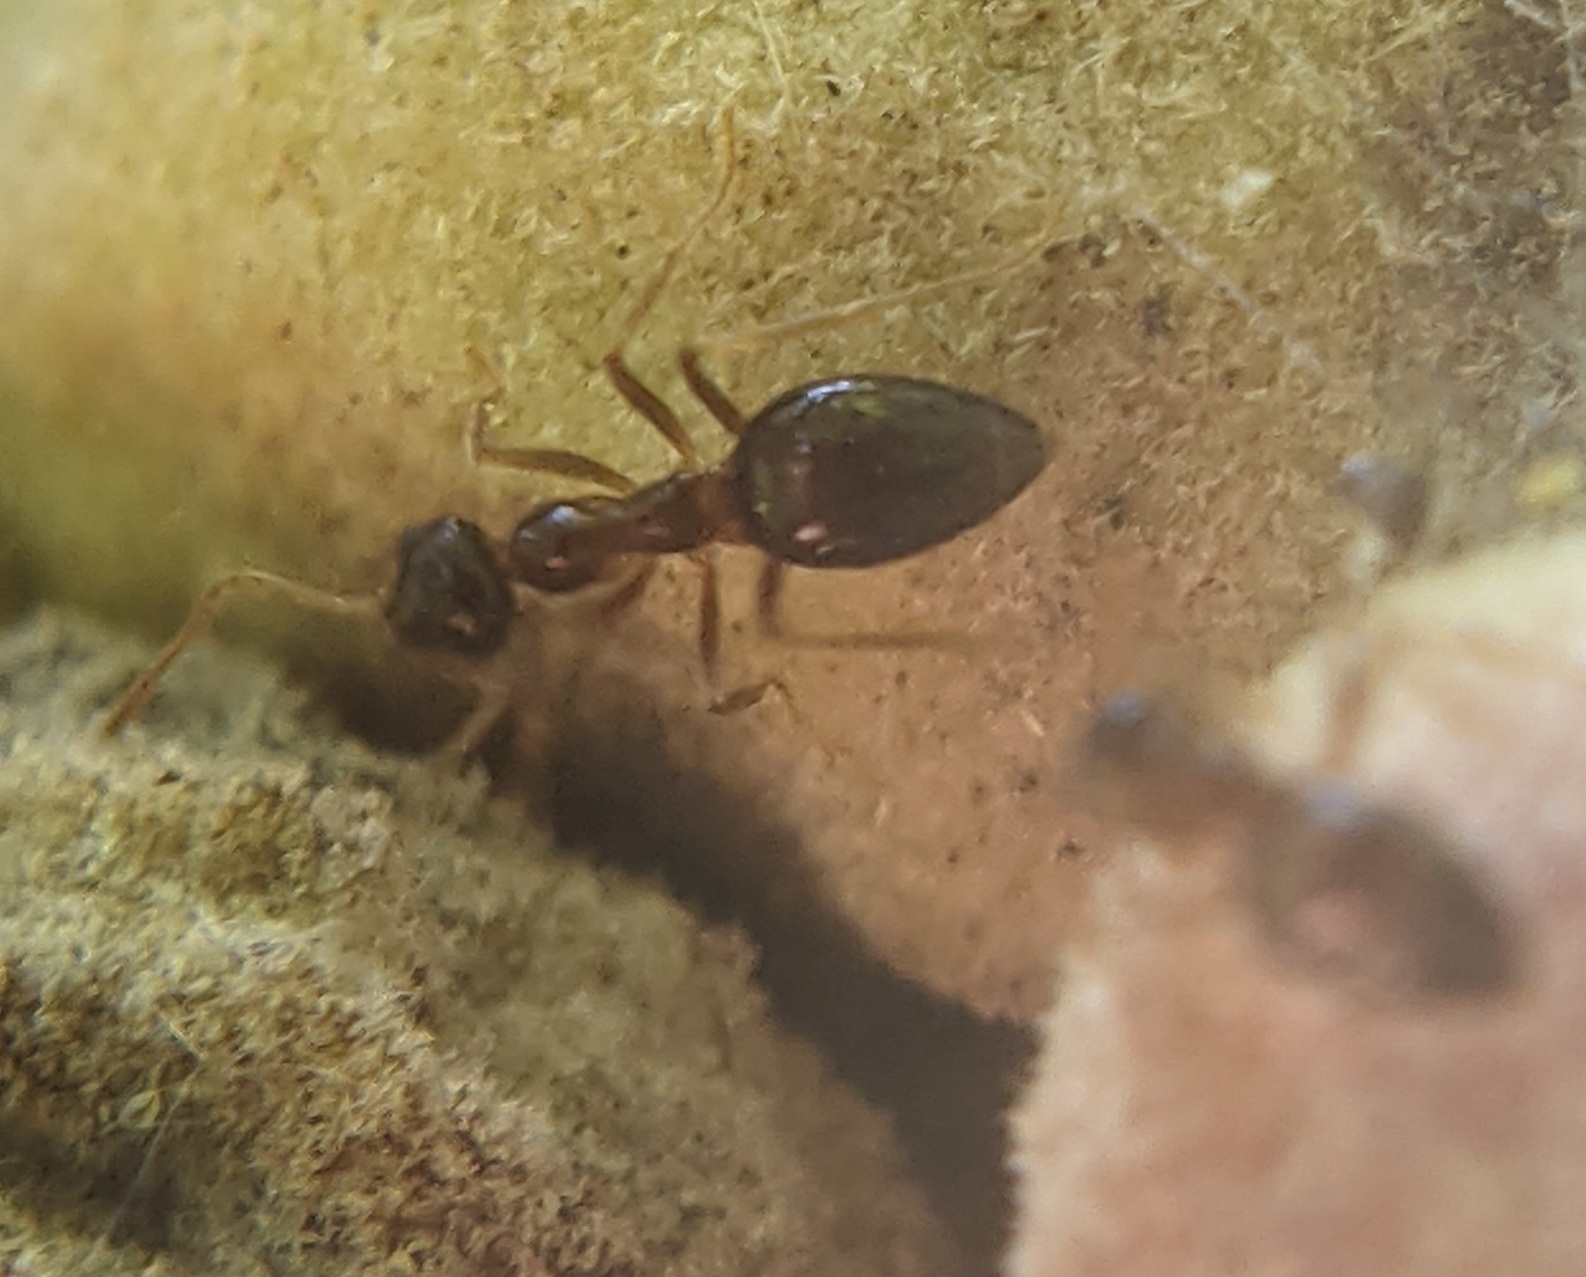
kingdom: Animalia
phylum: Arthropoda
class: Insecta
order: Hymenoptera
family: Formicidae
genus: Prenolepis
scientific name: Prenolepis imparis
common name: Small honey ant
